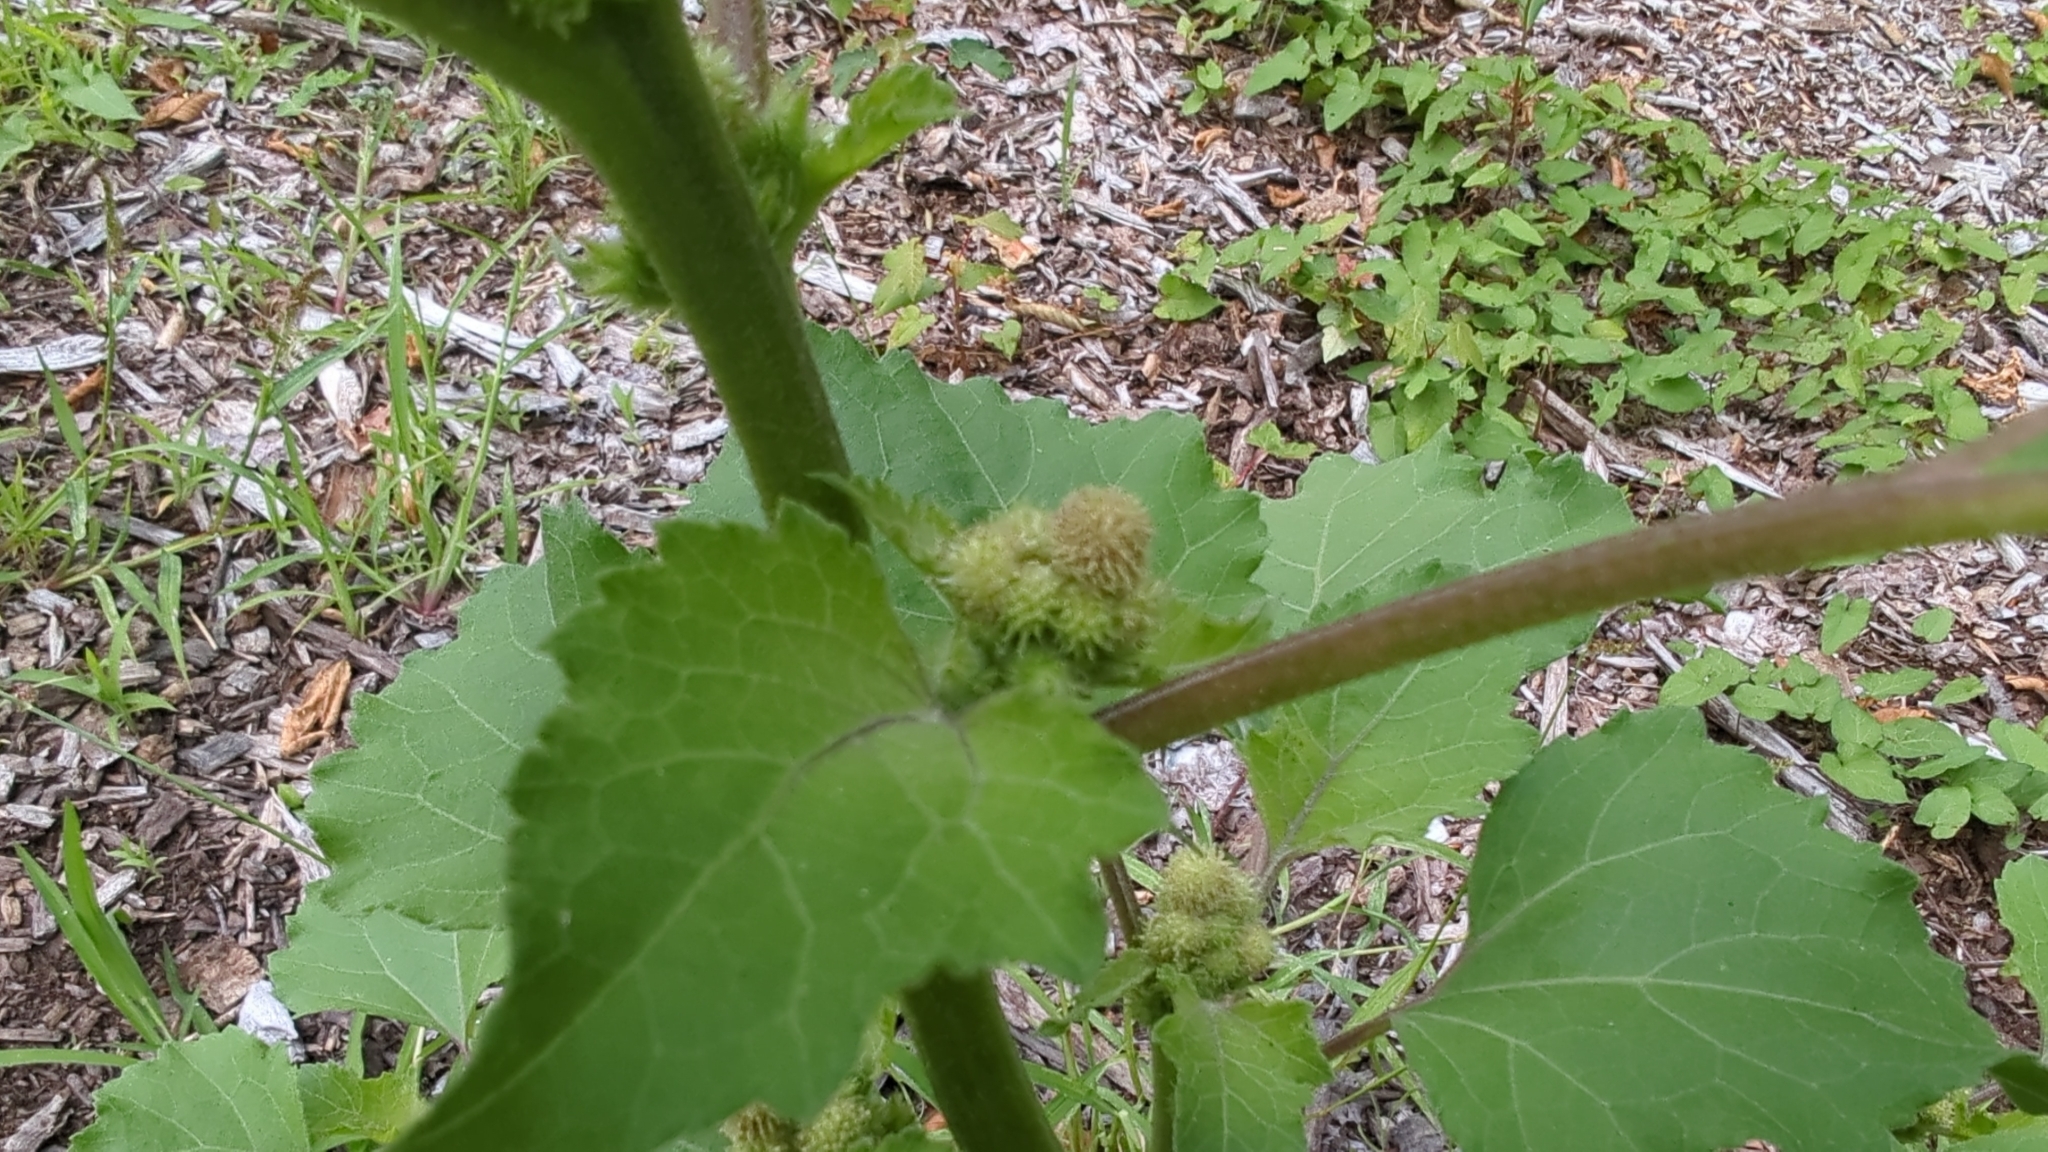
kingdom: Plantae
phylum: Tracheophyta
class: Magnoliopsida
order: Asterales
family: Asteraceae
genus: Xanthium
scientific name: Xanthium strumarium
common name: Rough cocklebur
